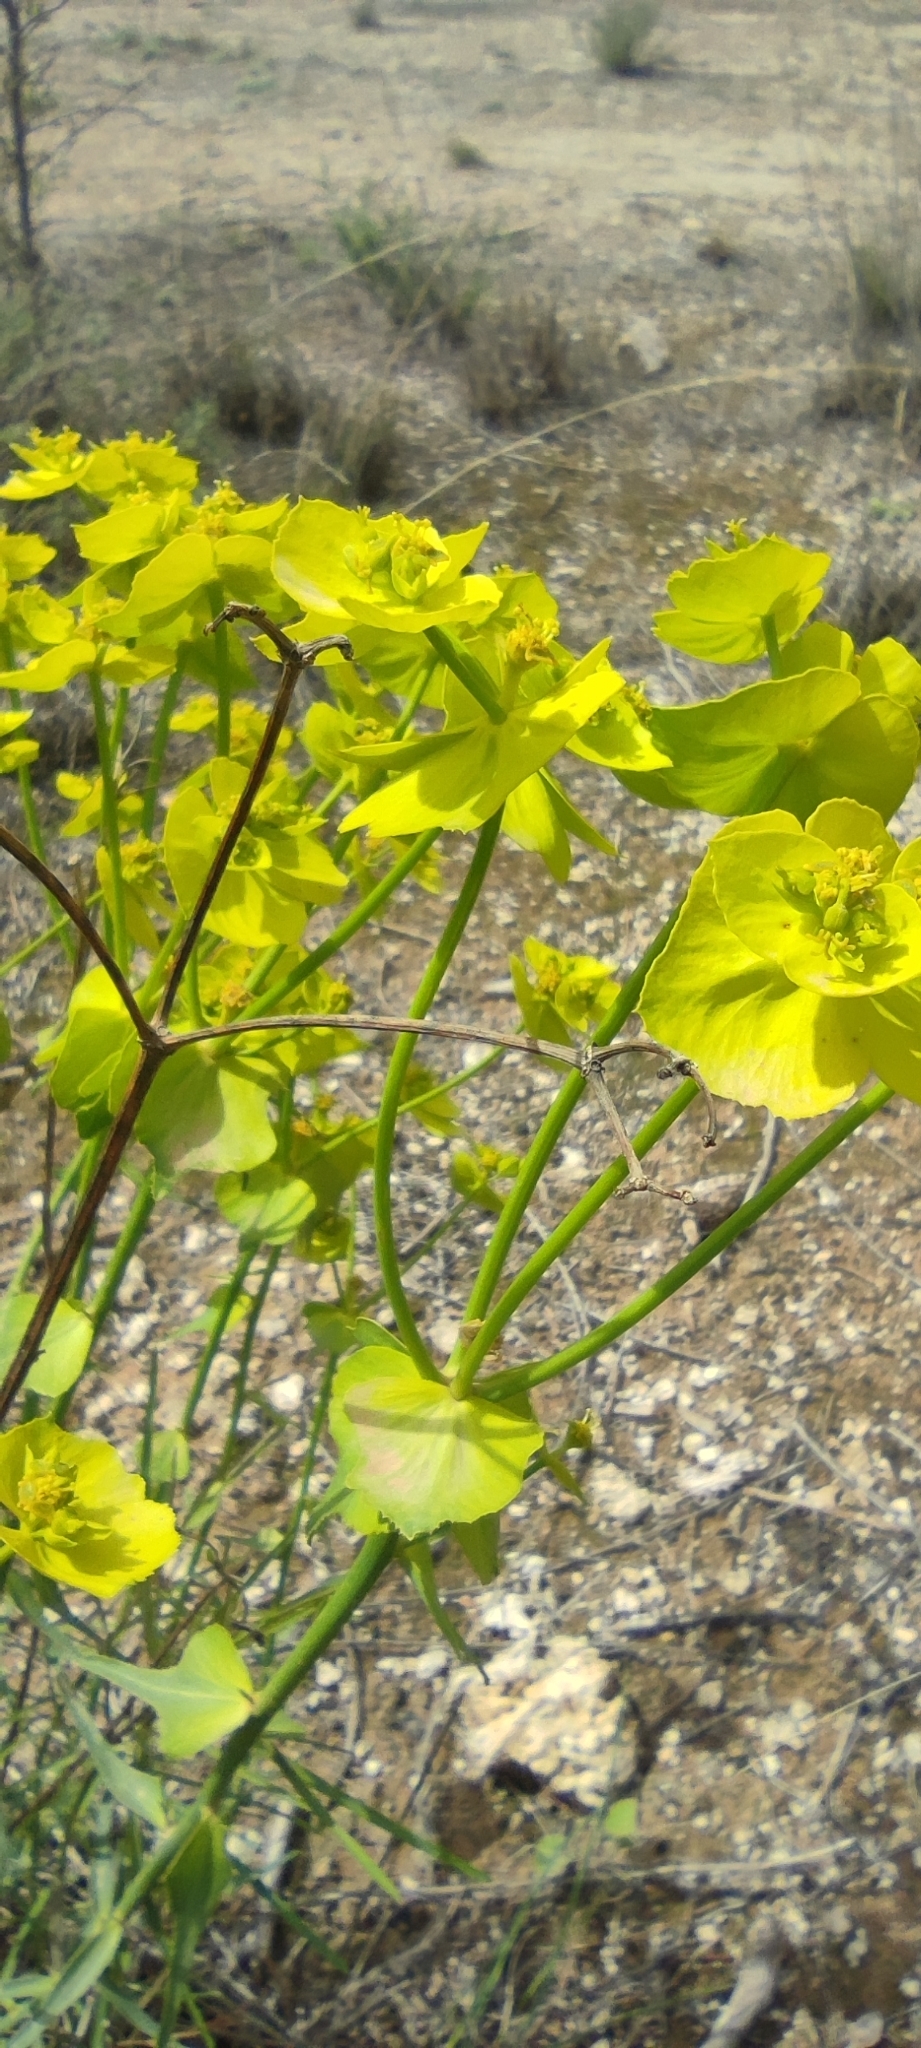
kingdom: Plantae
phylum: Tracheophyta
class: Magnoliopsida
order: Malpighiales
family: Euphorbiaceae
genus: Euphorbia
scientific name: Euphorbia serrata
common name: Serrate spurge
